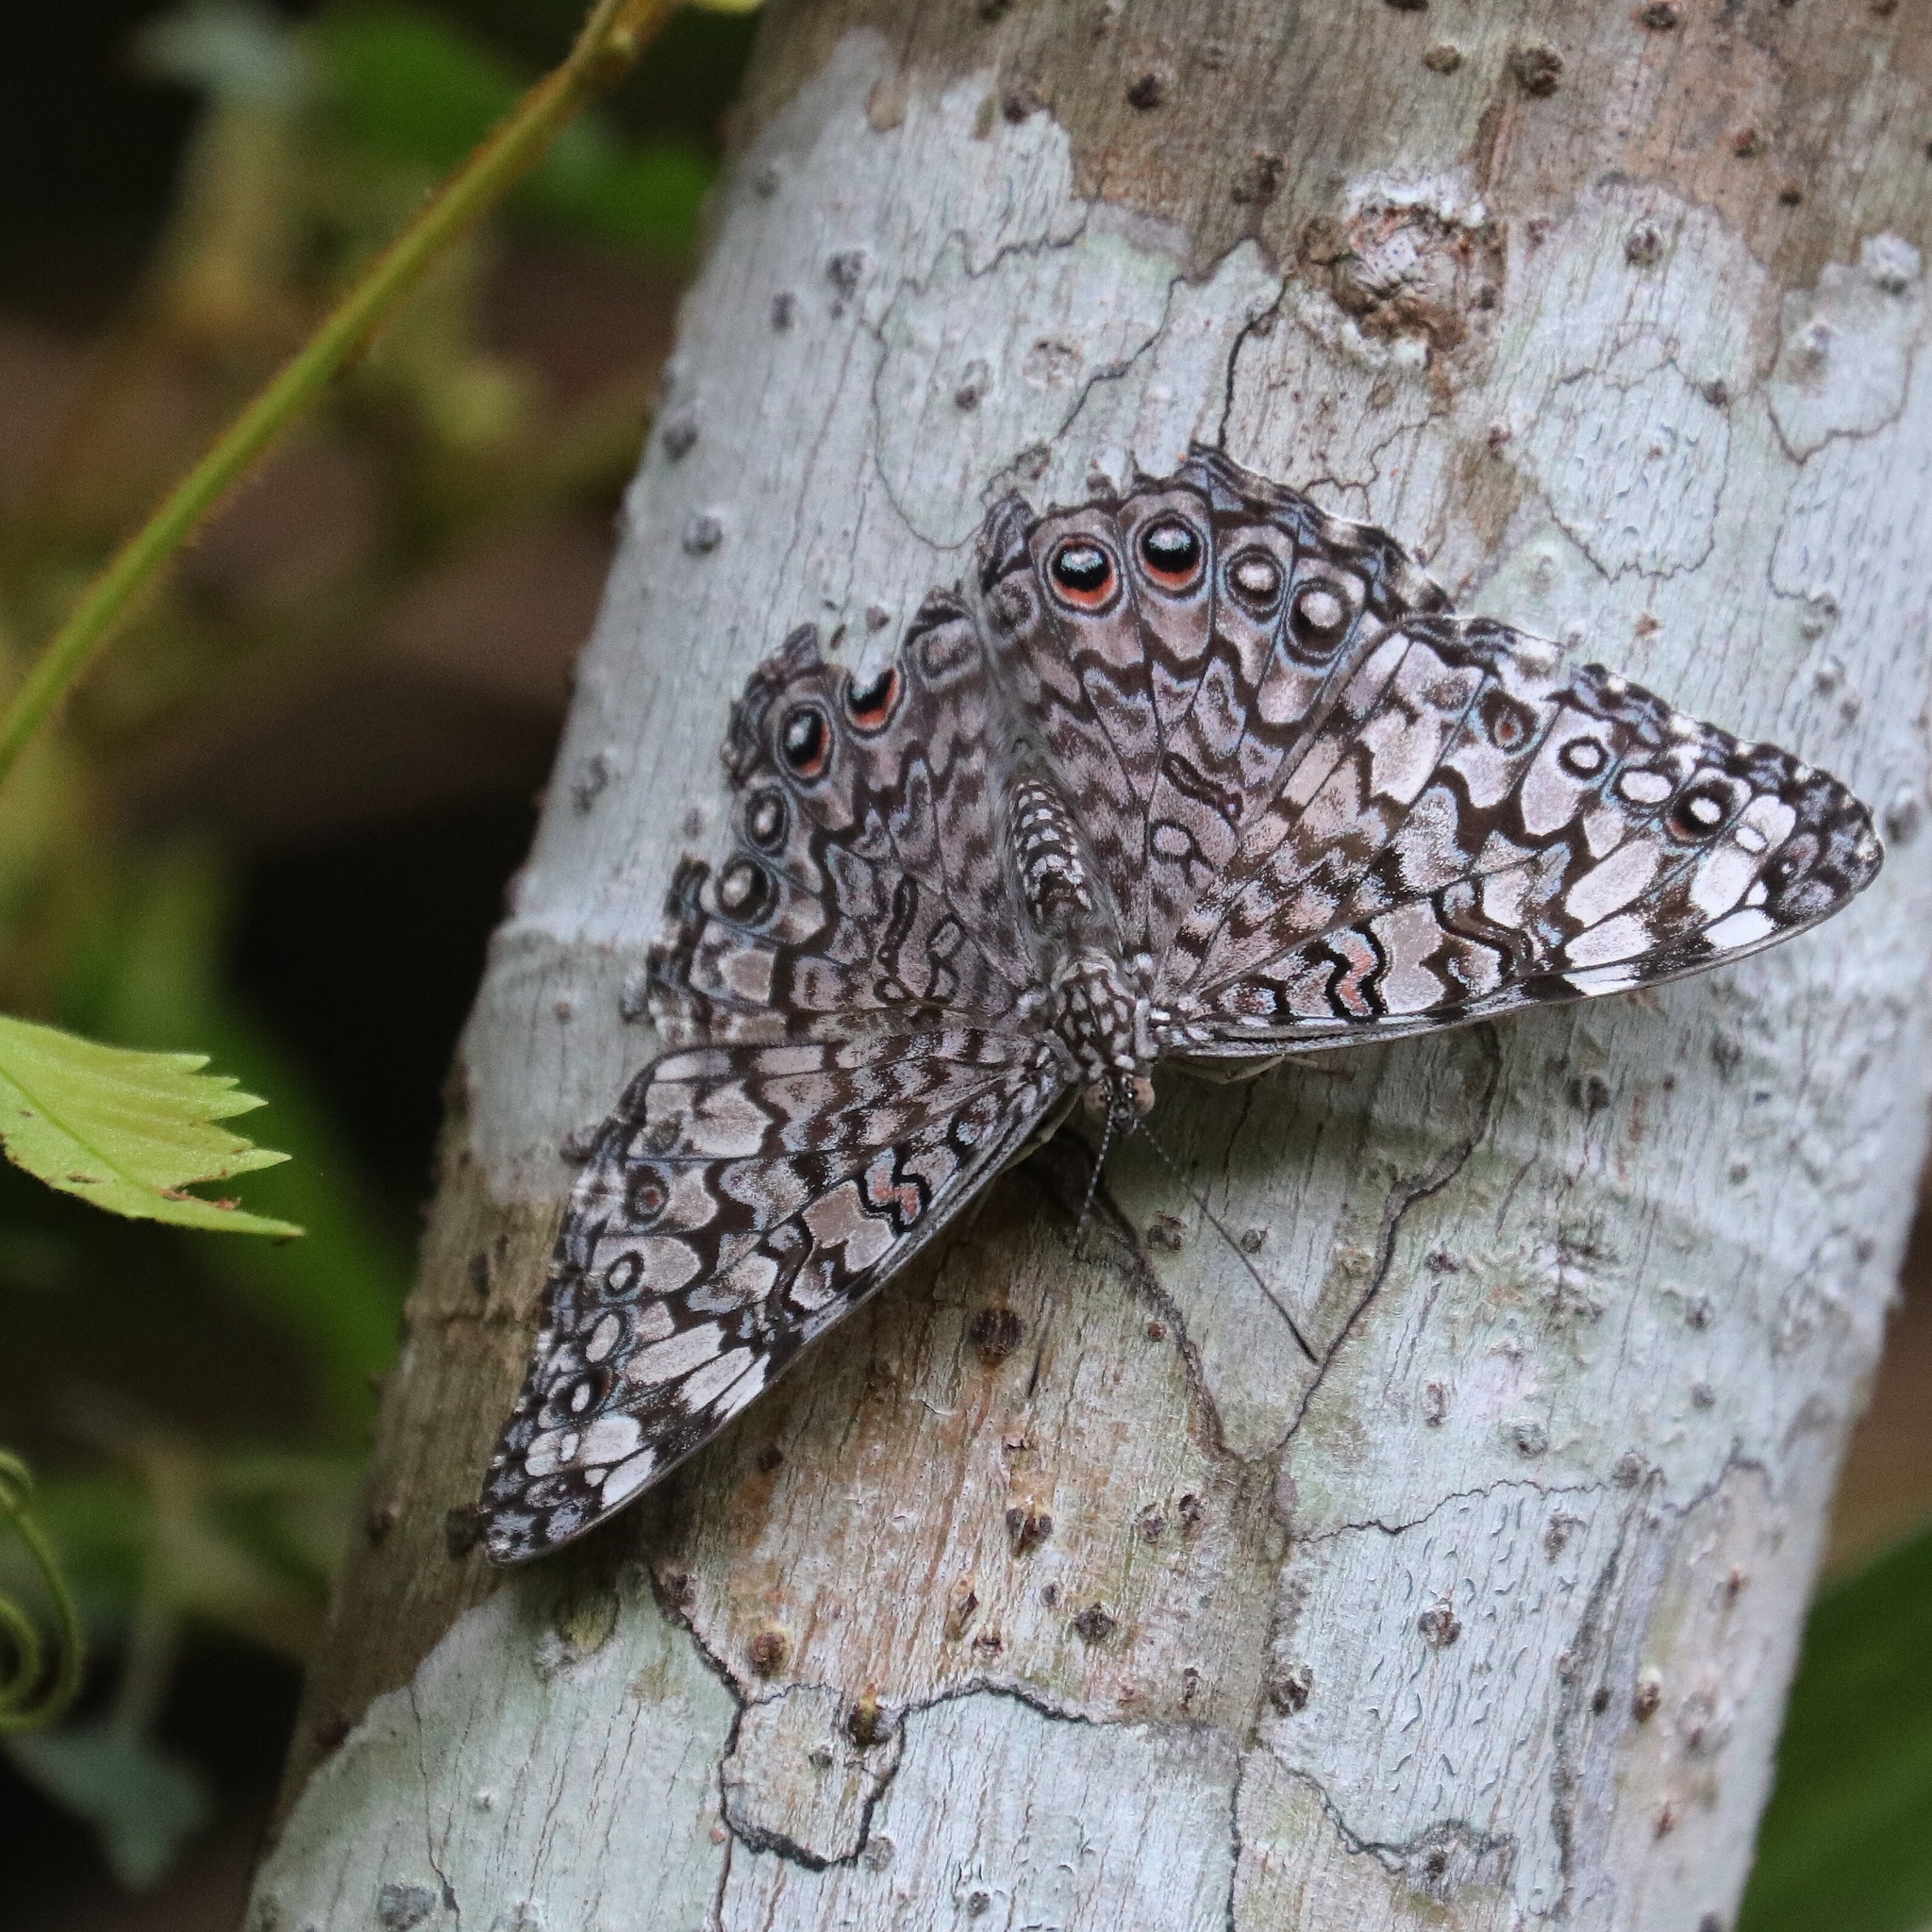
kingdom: Animalia
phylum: Arthropoda
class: Insecta
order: Lepidoptera
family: Nymphalidae
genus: Hamadryas
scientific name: Hamadryas februa
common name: Gray cracker
